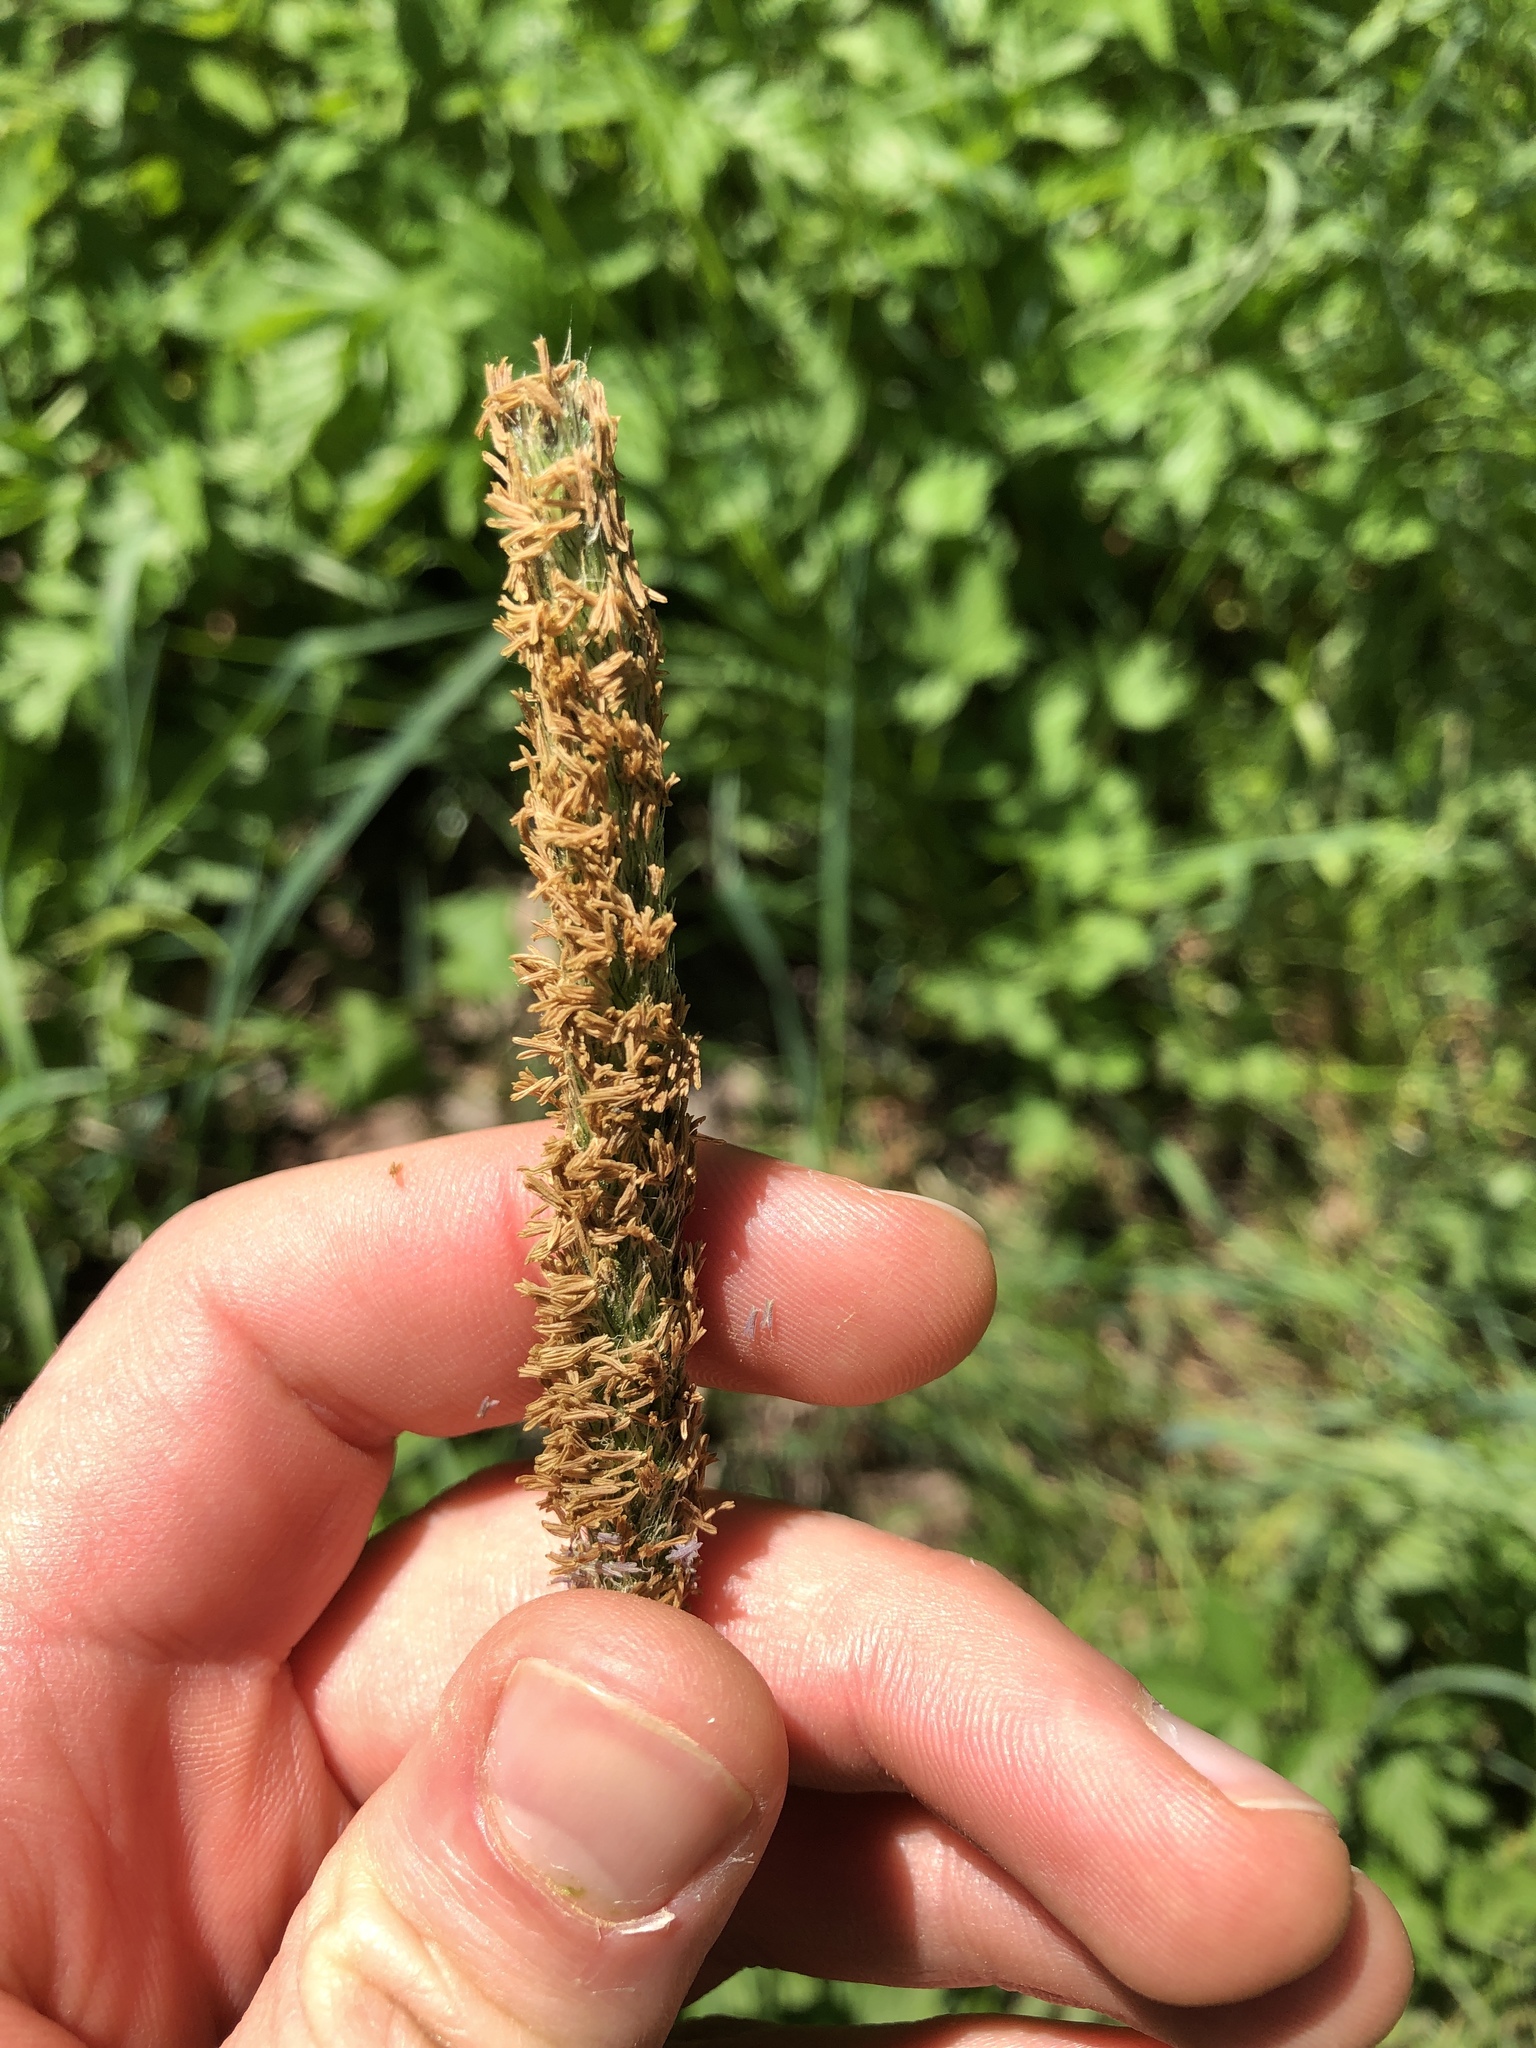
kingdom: Plantae
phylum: Tracheophyta
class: Liliopsida
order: Poales
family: Poaceae
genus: Alopecurus
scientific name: Alopecurus pratensis
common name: Meadow foxtail
